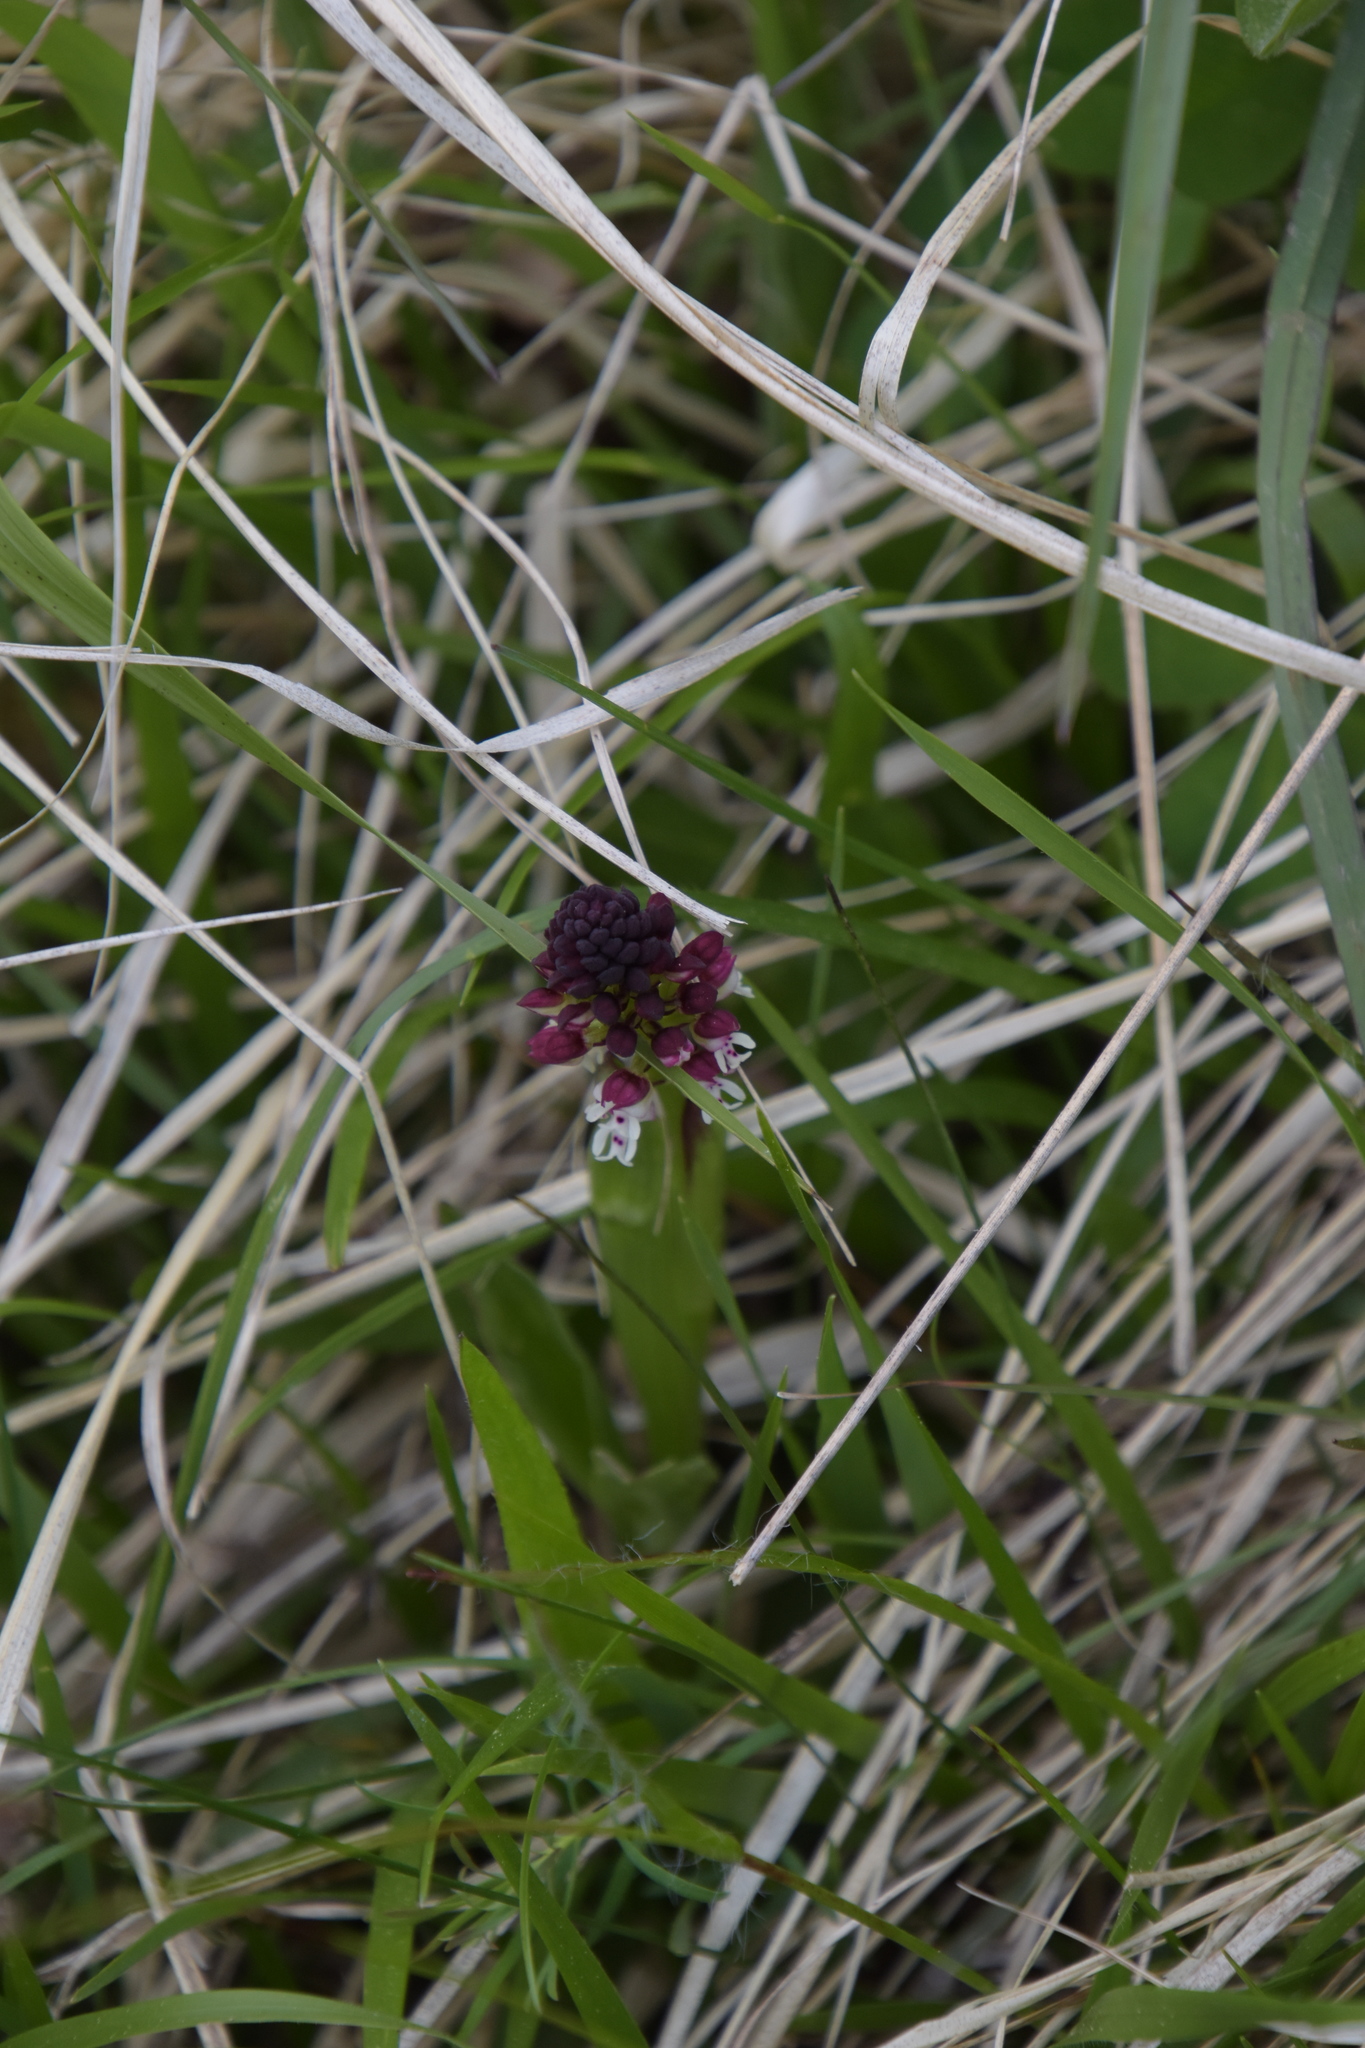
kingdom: Plantae
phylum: Tracheophyta
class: Liliopsida
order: Asparagales
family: Orchidaceae
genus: Neotinea
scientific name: Neotinea ustulata
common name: Burnt orchid
